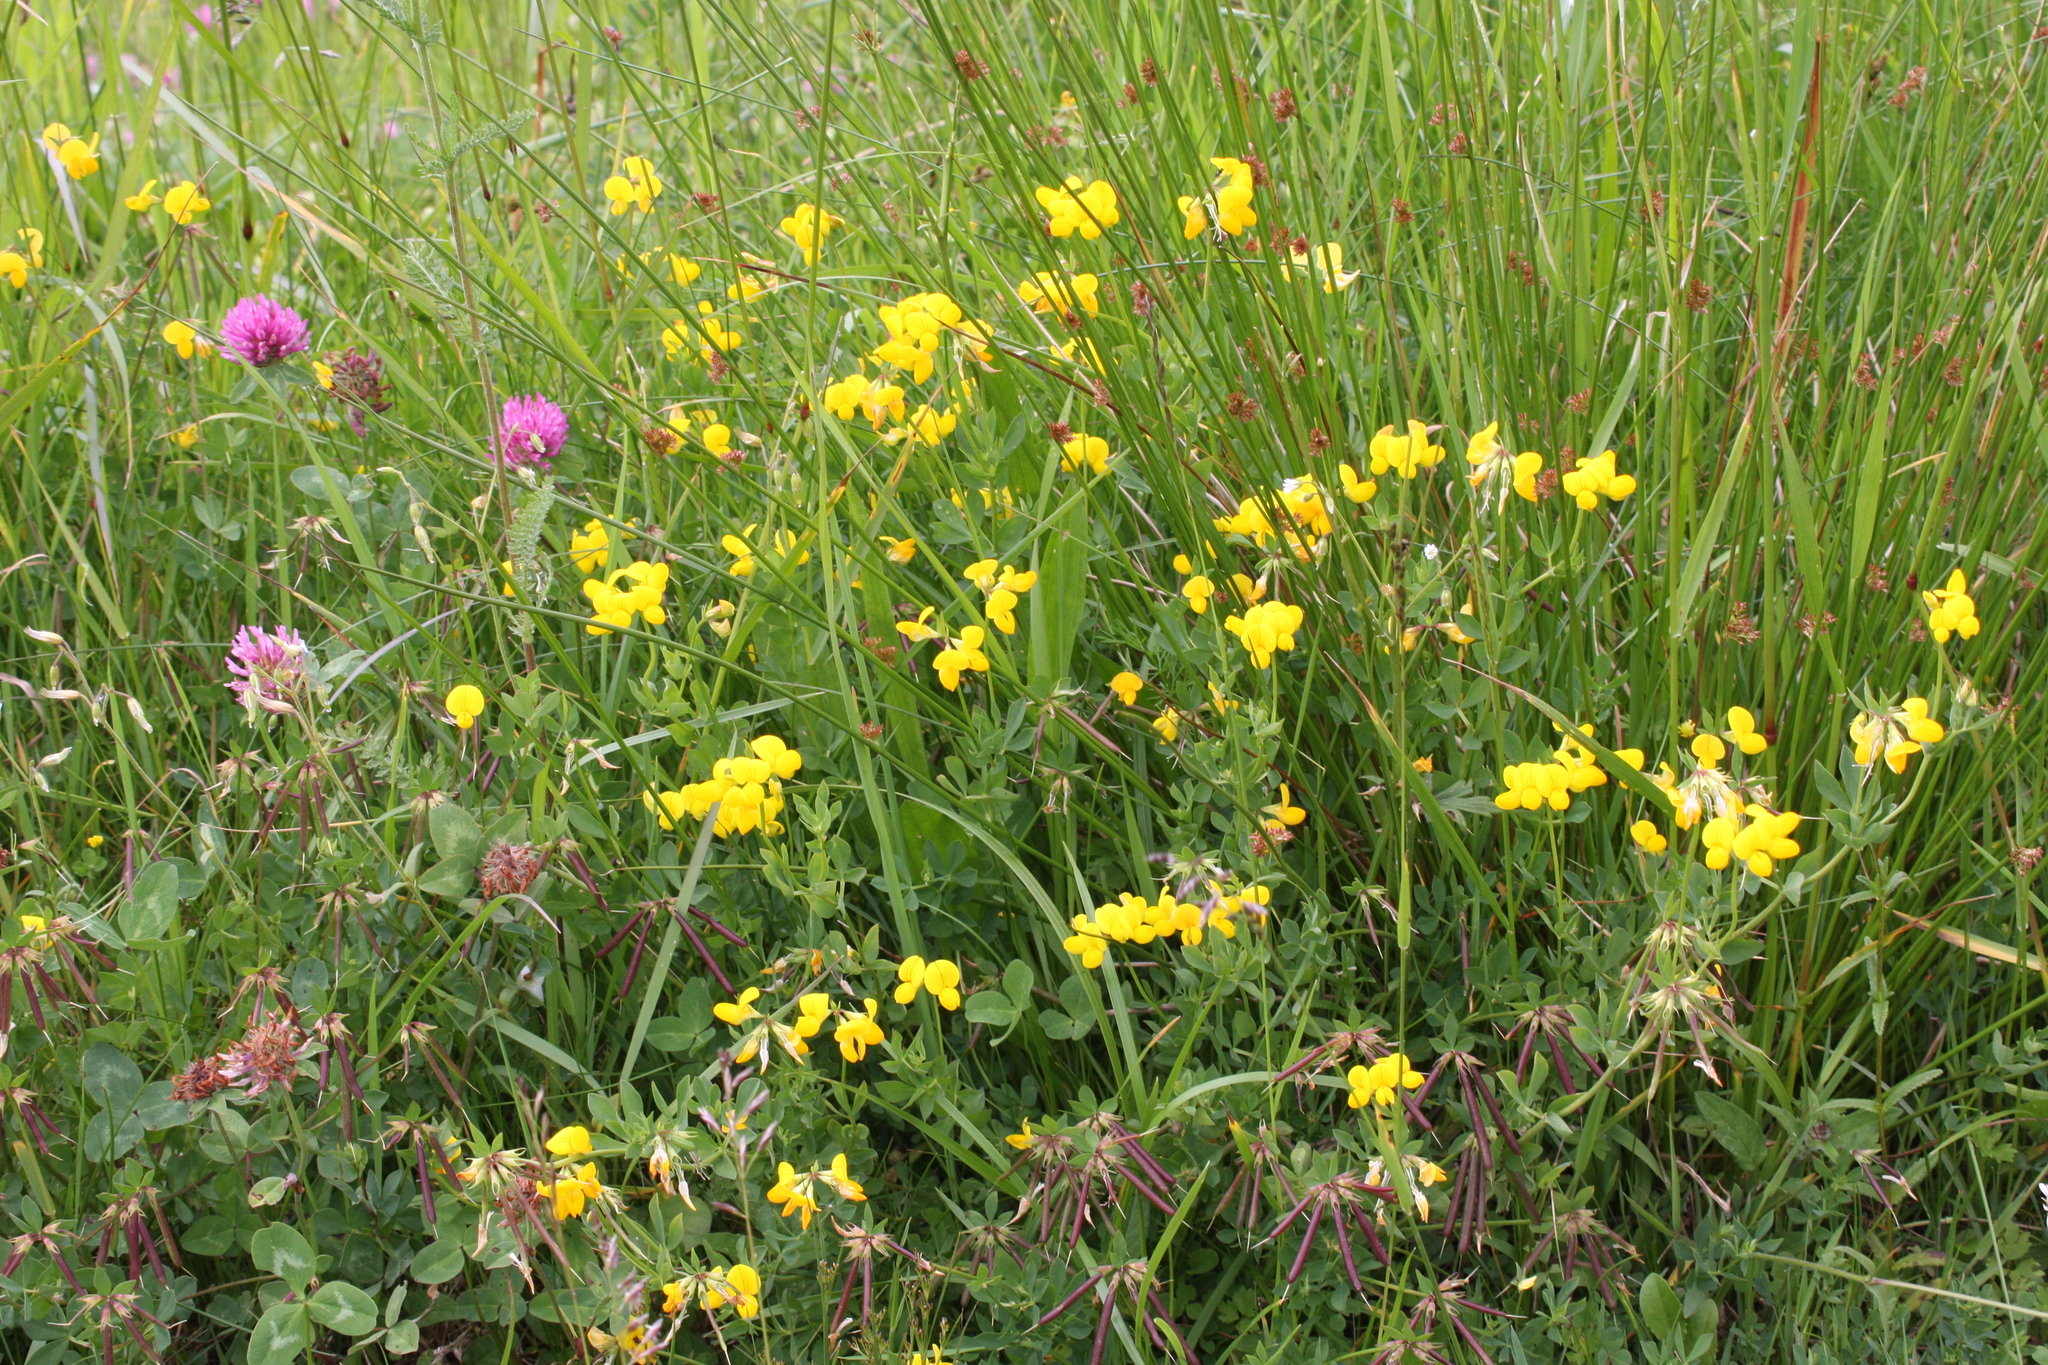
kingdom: Plantae
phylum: Tracheophyta
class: Magnoliopsida
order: Fabales
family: Fabaceae
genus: Lotus
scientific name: Lotus corniculatus
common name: Common bird's-foot-trefoil
